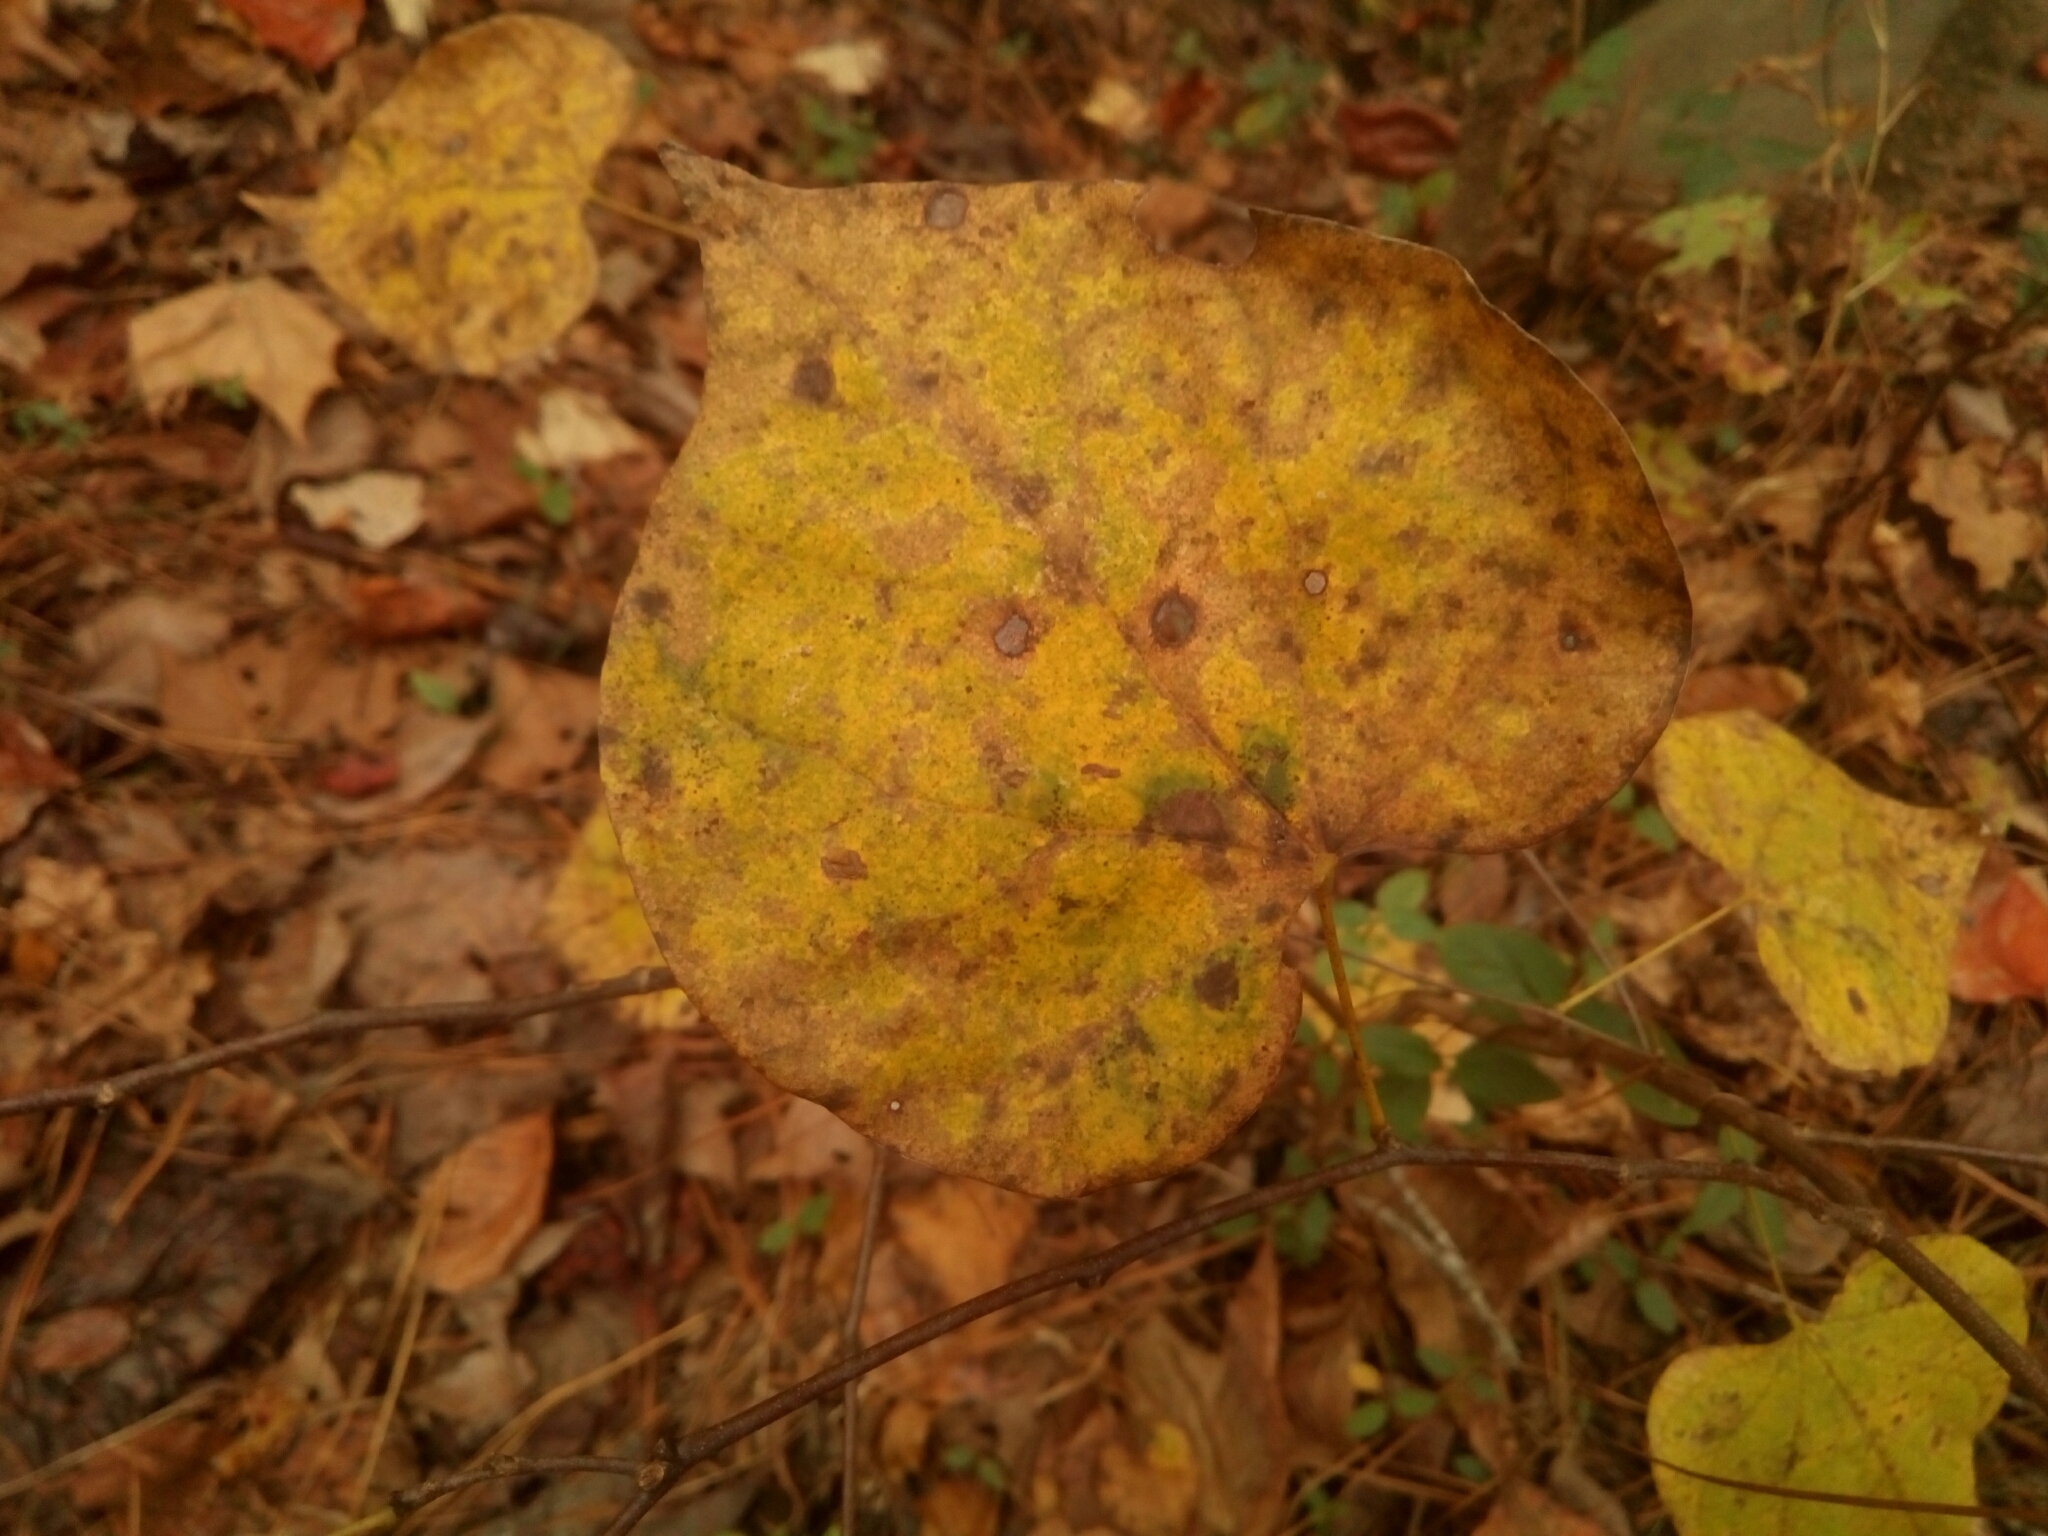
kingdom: Plantae
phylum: Tracheophyta
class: Magnoliopsida
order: Fabales
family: Fabaceae
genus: Cercis
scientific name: Cercis canadensis
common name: Eastern redbud
